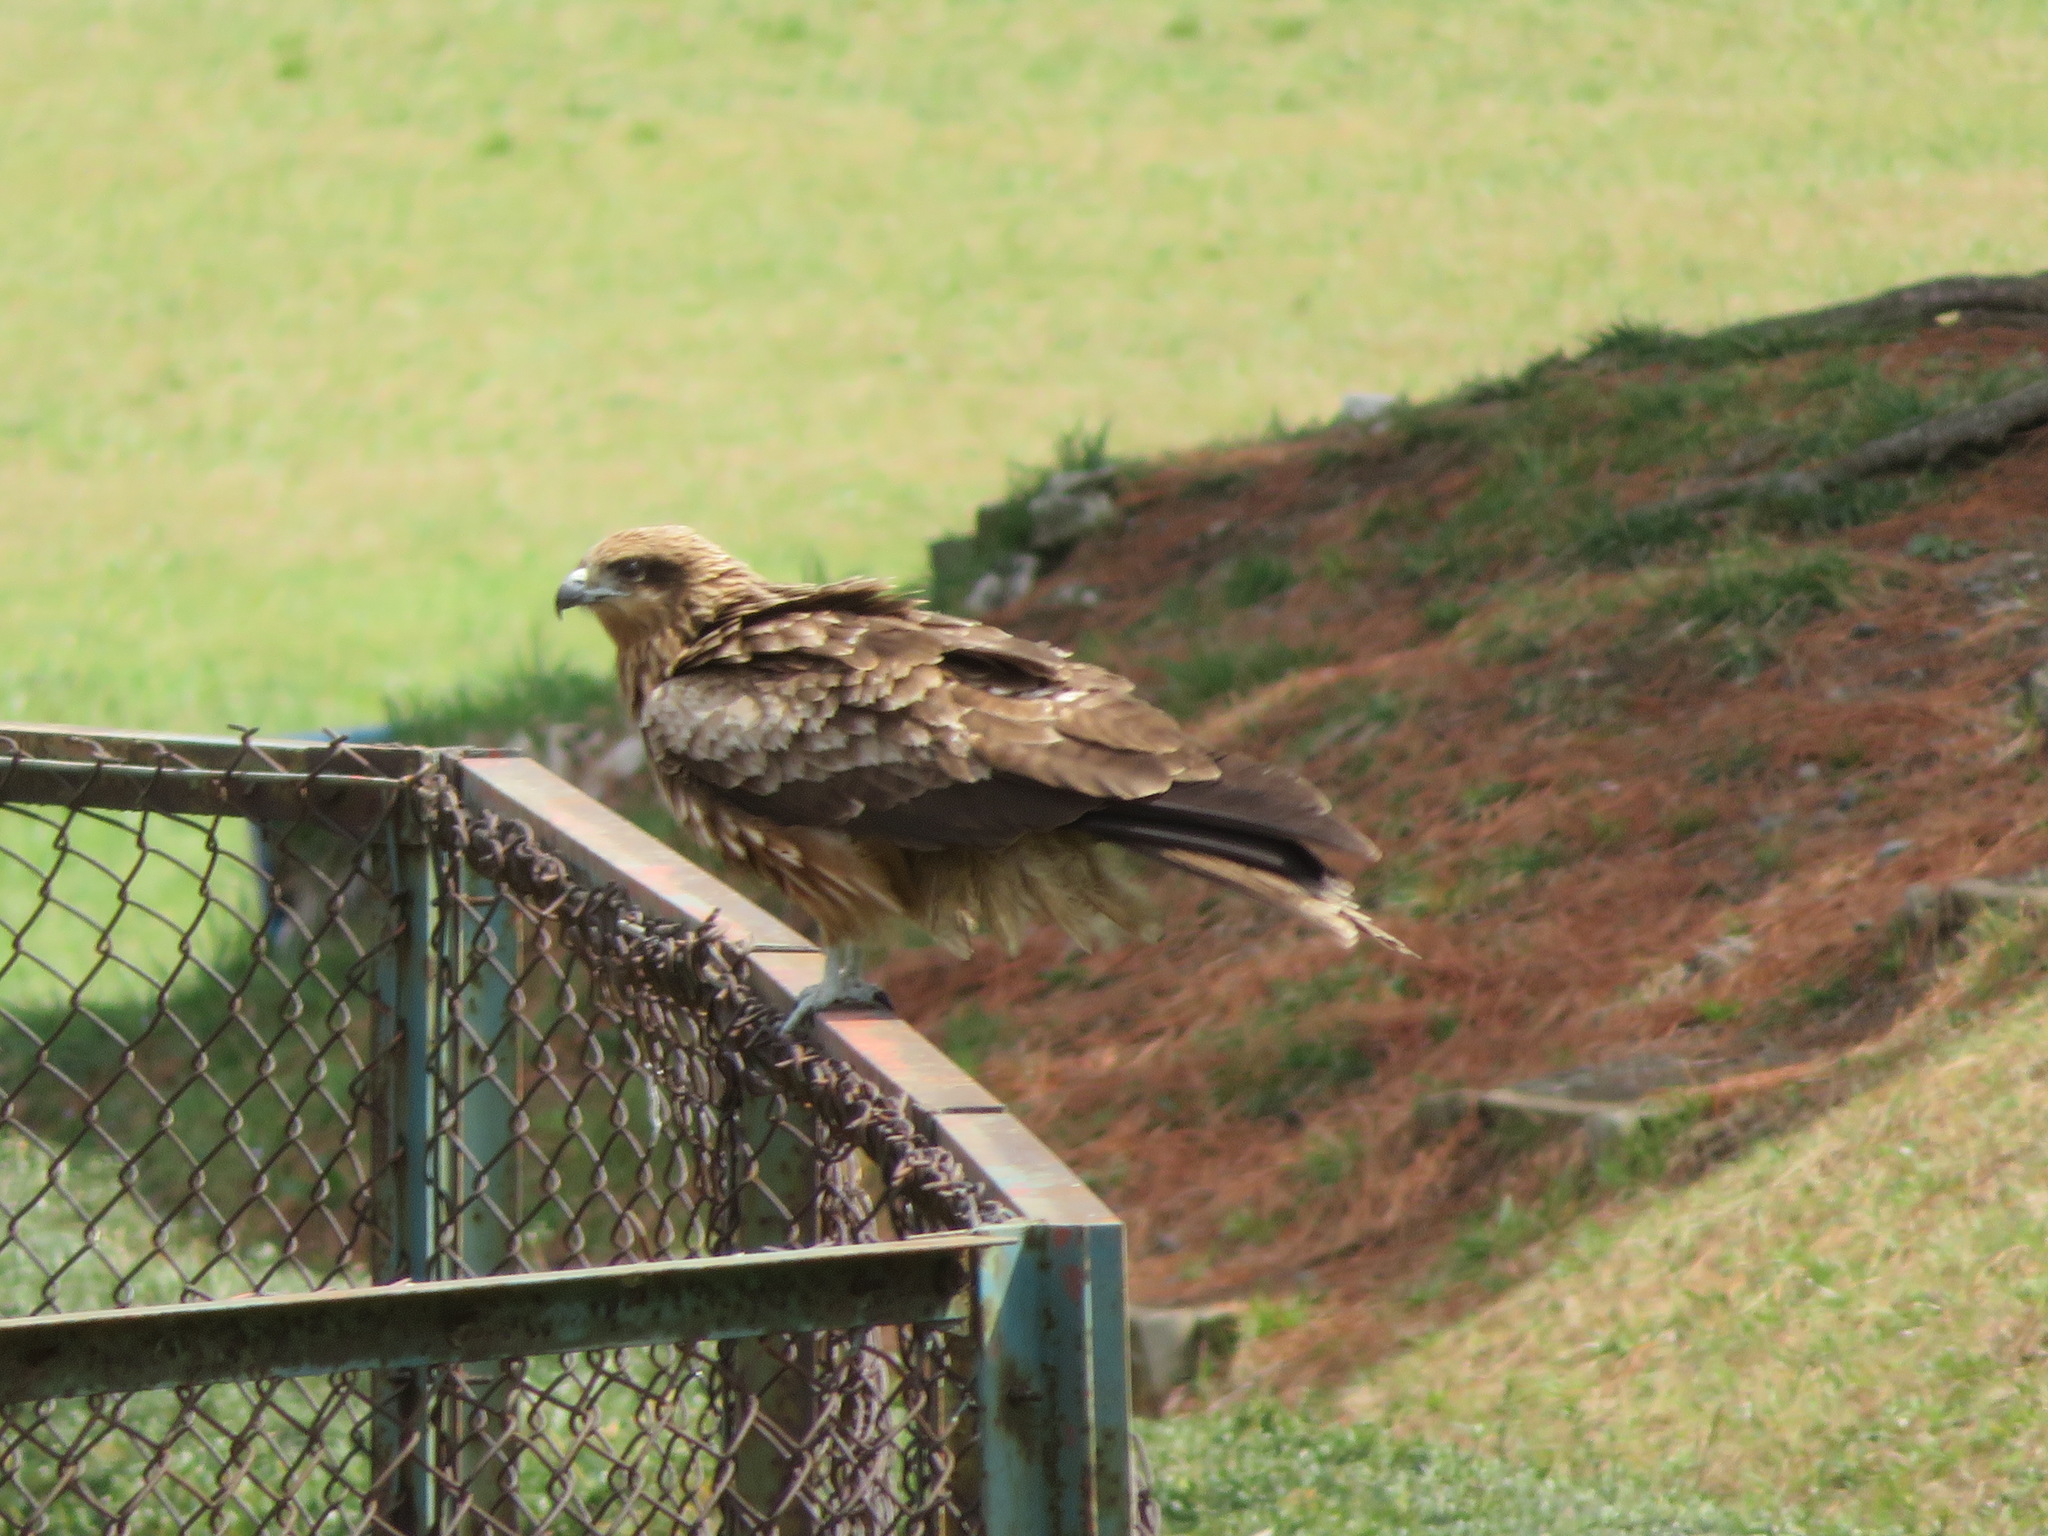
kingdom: Animalia
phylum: Chordata
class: Aves
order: Accipitriformes
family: Accipitridae
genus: Milvus
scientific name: Milvus migrans
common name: Black kite
